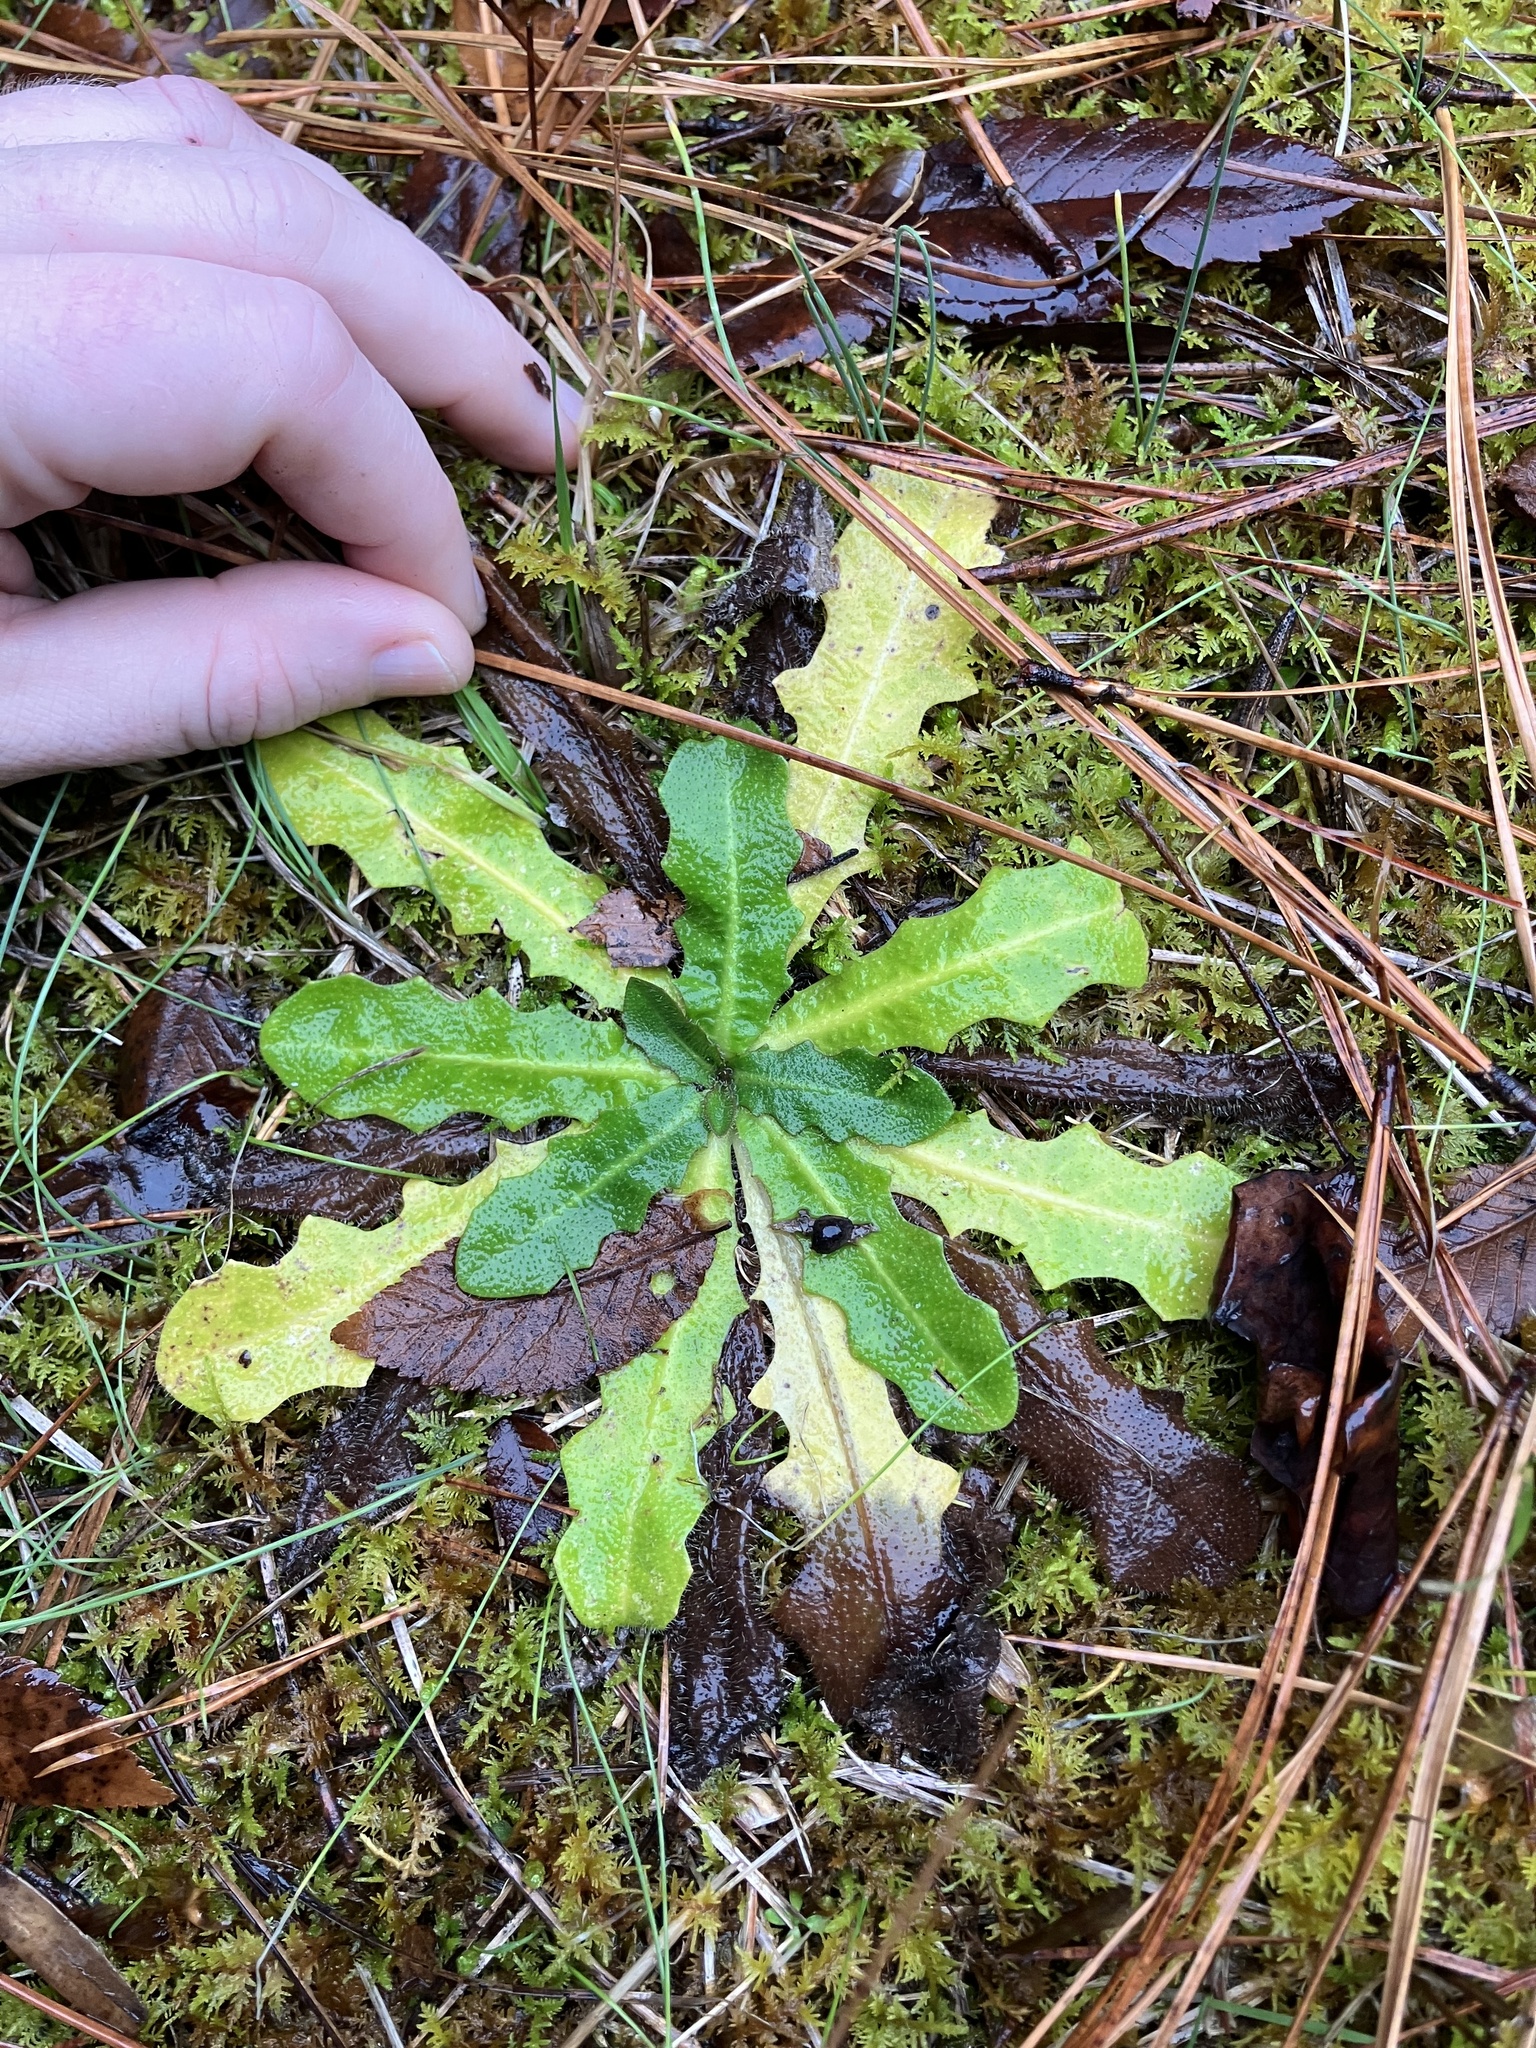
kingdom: Plantae
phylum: Tracheophyta
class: Magnoliopsida
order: Asterales
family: Asteraceae
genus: Hypochaeris
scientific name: Hypochaeris radicata
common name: Flatweed
